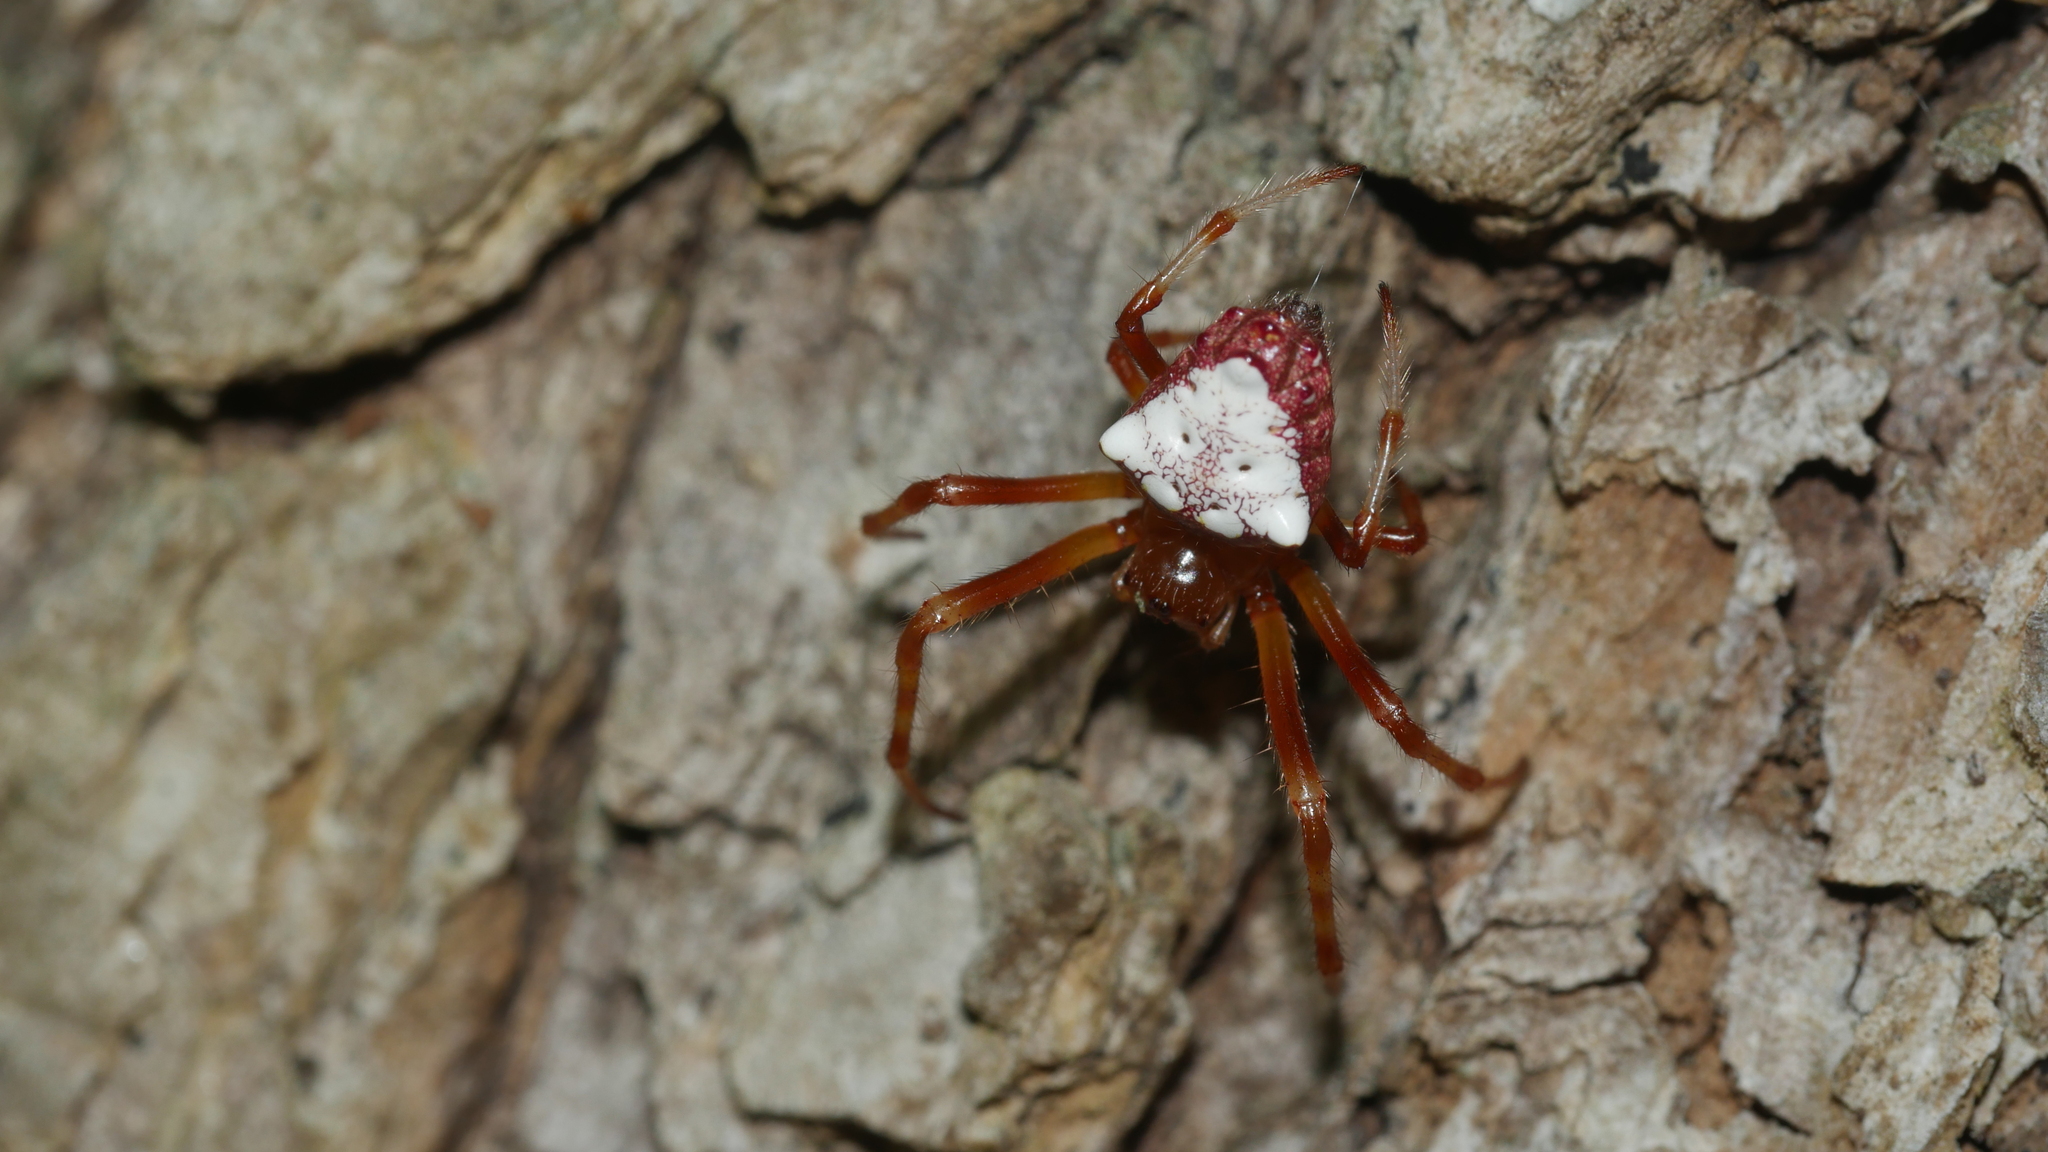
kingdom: Animalia
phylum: Arthropoda
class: Arachnida
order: Araneae
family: Araneidae
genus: Verrucosa
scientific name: Verrucosa arenata
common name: Orb weavers
